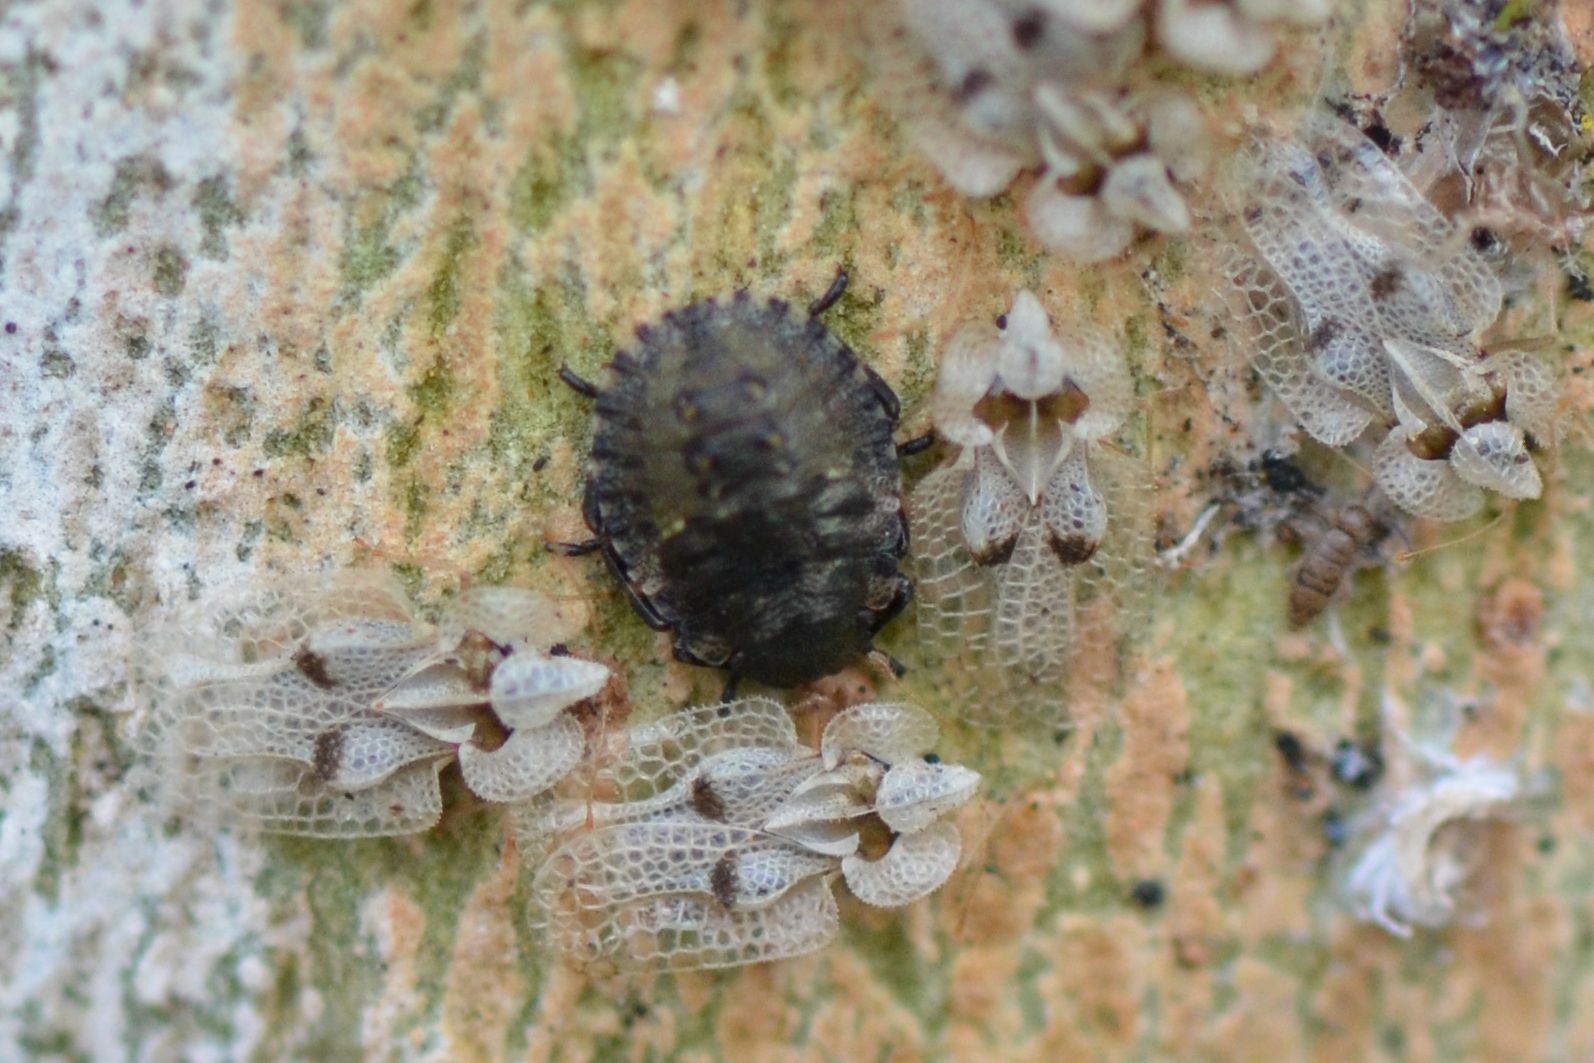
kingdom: Animalia
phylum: Arthropoda
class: Insecta
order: Hemiptera
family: Pentatomidae
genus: Pentatoma
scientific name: Pentatoma rufipes
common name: Forest bug
